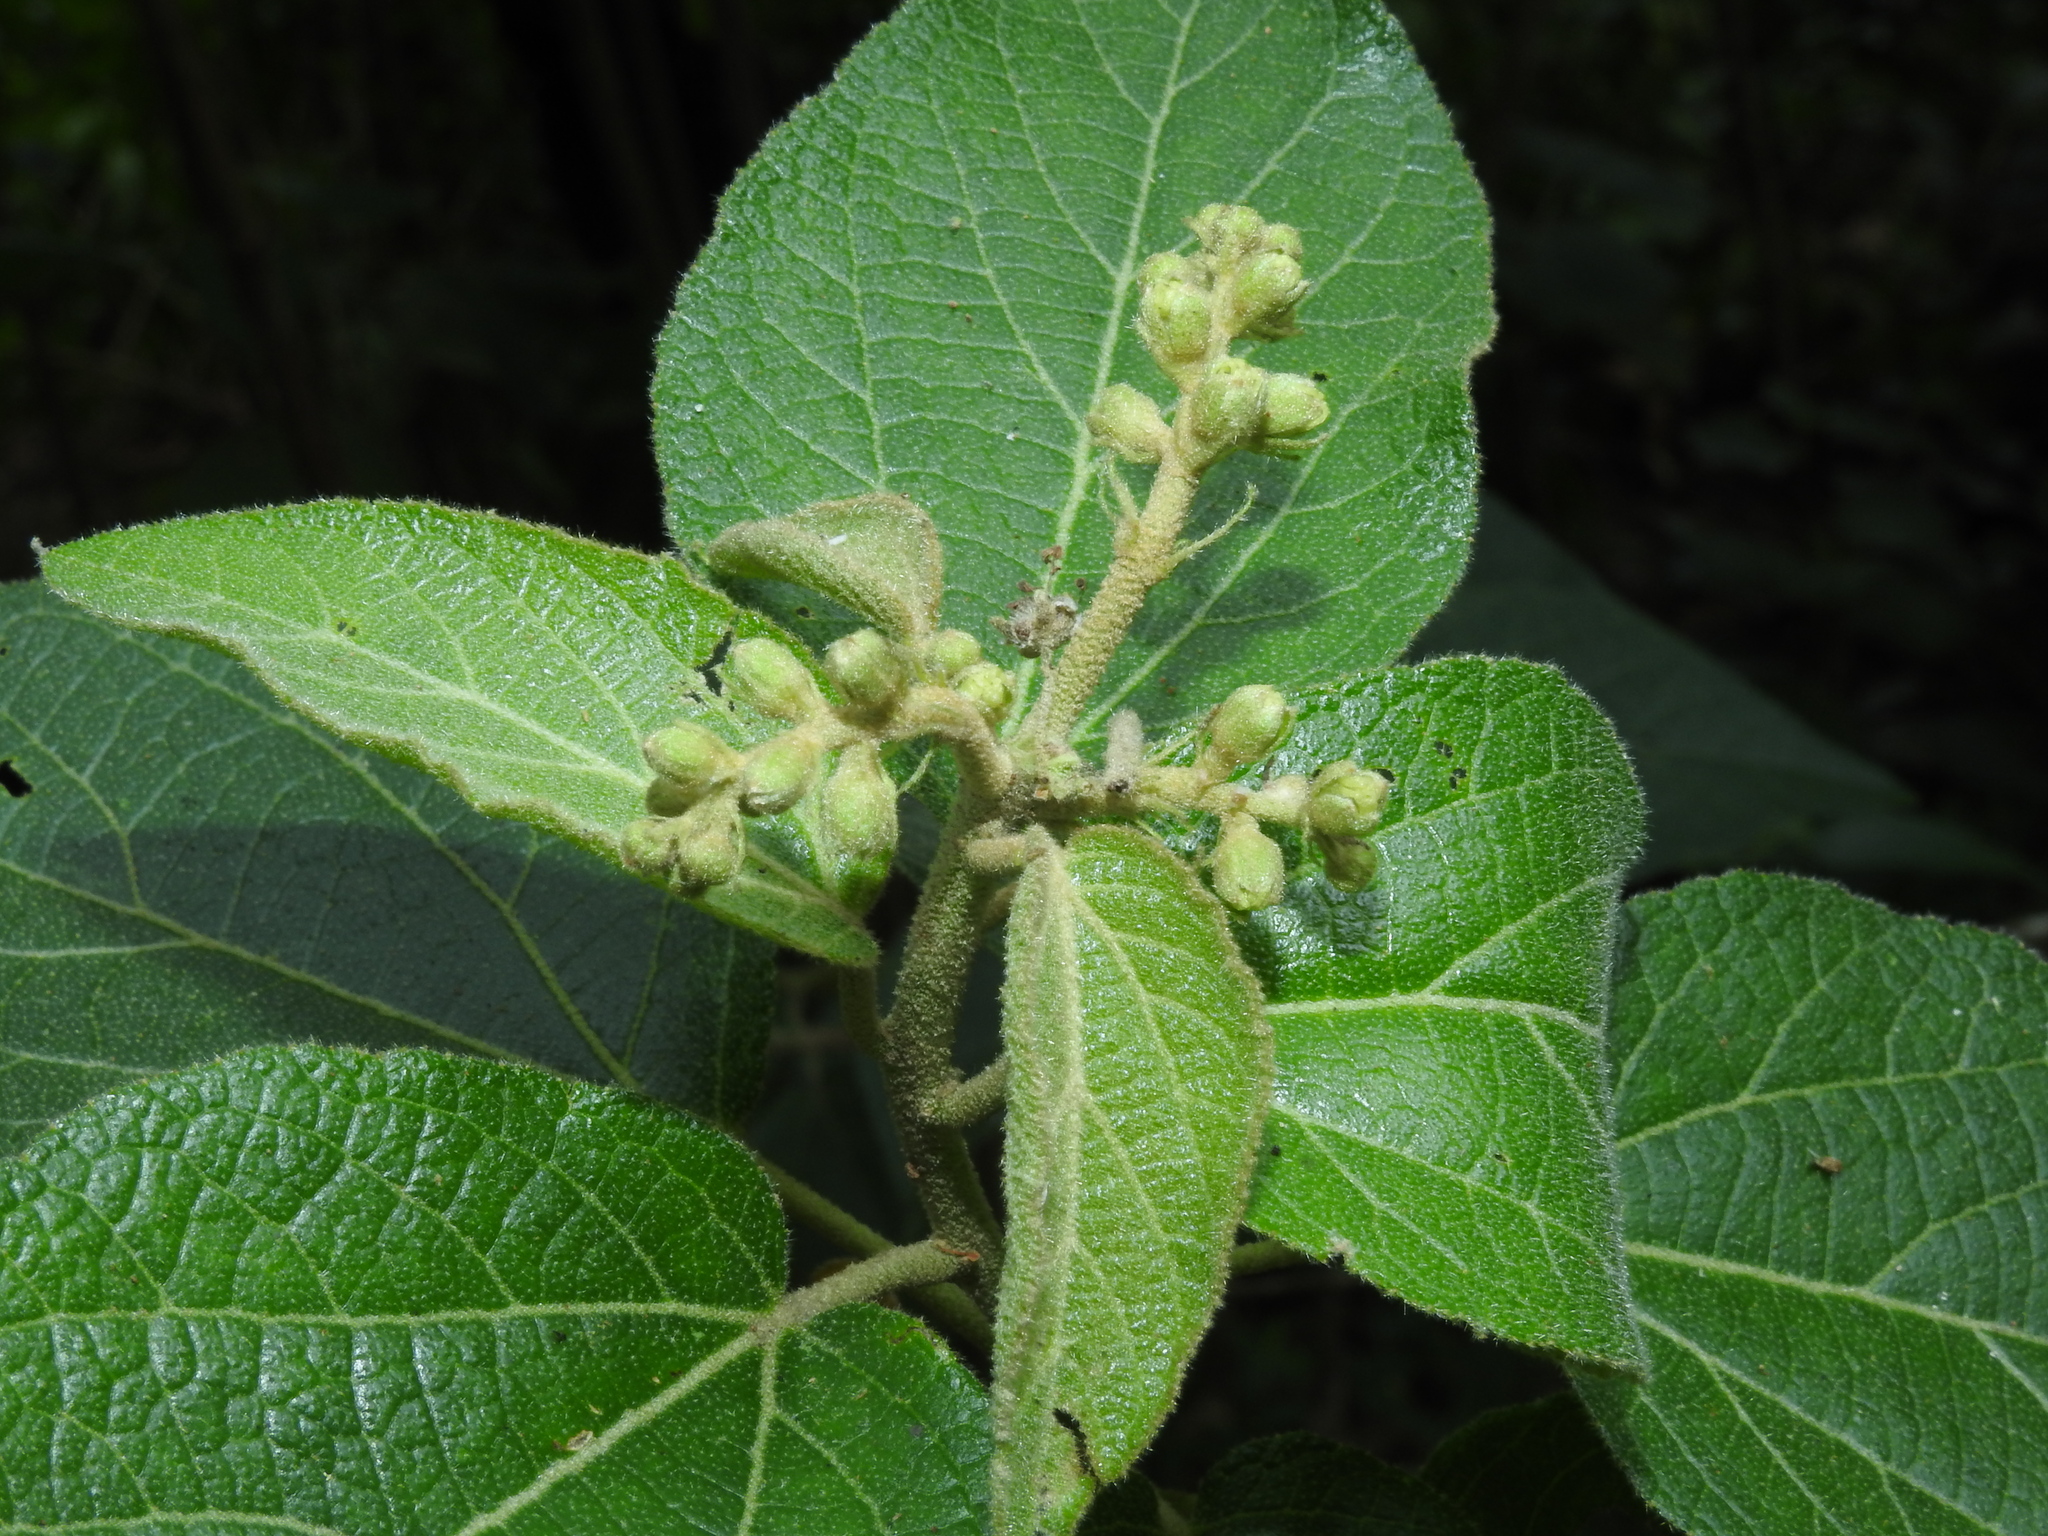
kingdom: Plantae
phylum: Tracheophyta
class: Magnoliopsida
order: Malpighiales
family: Euphorbiaceae
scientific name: Euphorbiaceae
